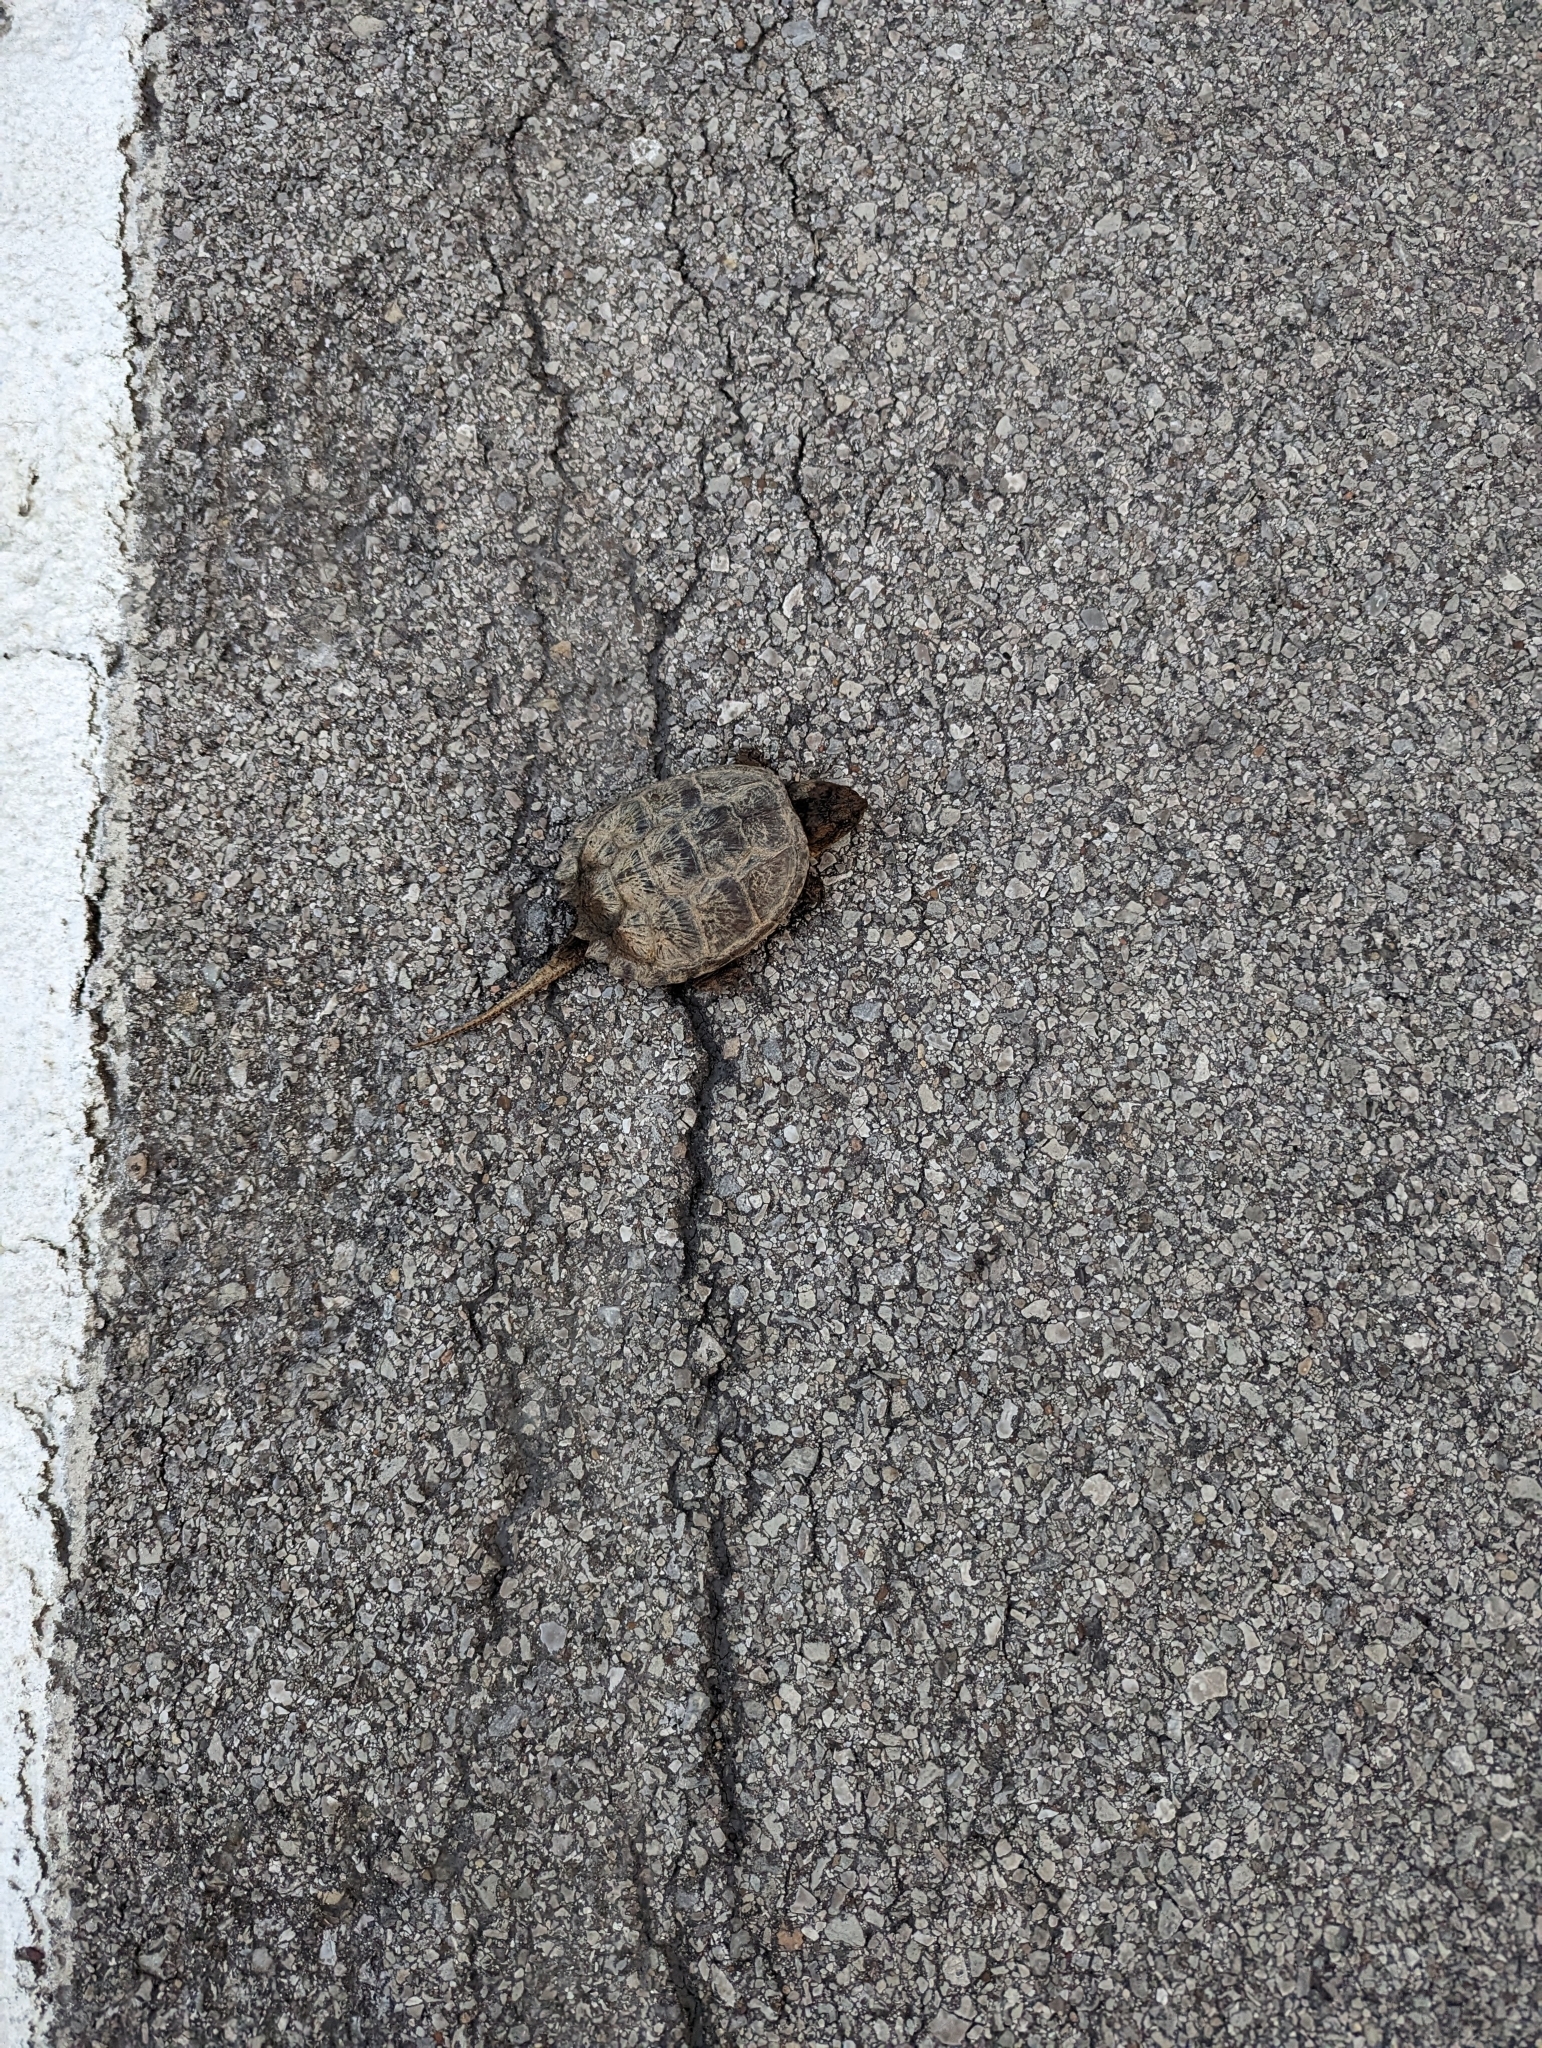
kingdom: Animalia
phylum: Chordata
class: Testudines
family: Chelydridae
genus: Chelydra
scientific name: Chelydra serpentina
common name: Common snapping turtle
